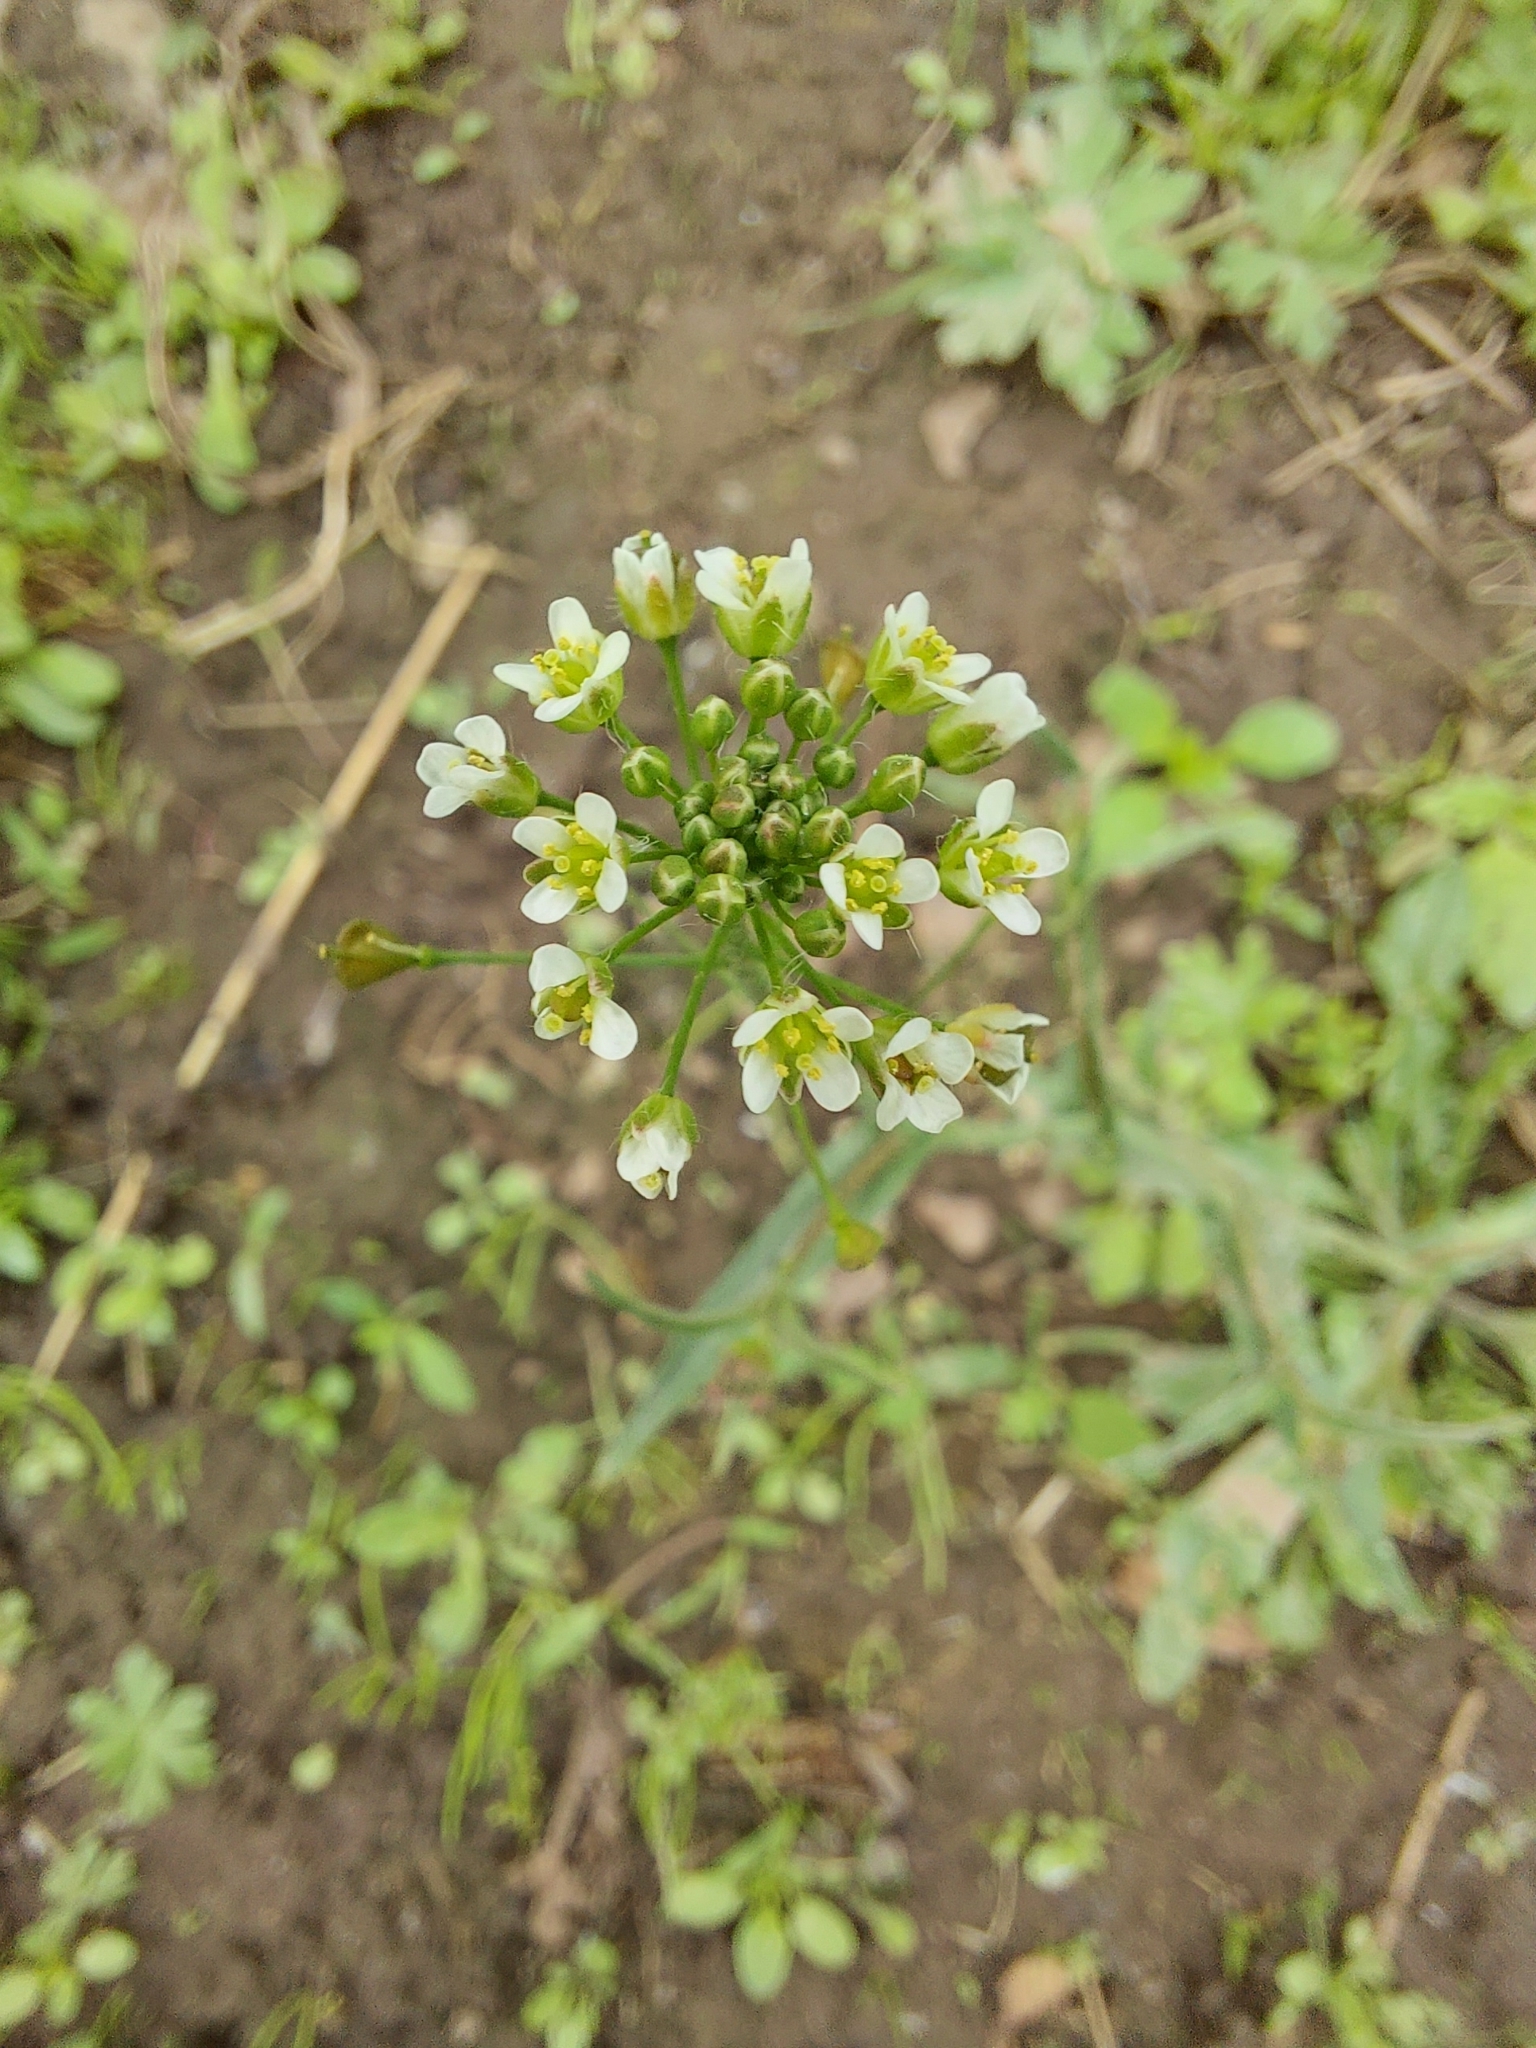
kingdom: Plantae
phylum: Tracheophyta
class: Magnoliopsida
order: Brassicales
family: Brassicaceae
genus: Capsella
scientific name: Capsella bursa-pastoris
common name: Shepherd's purse
